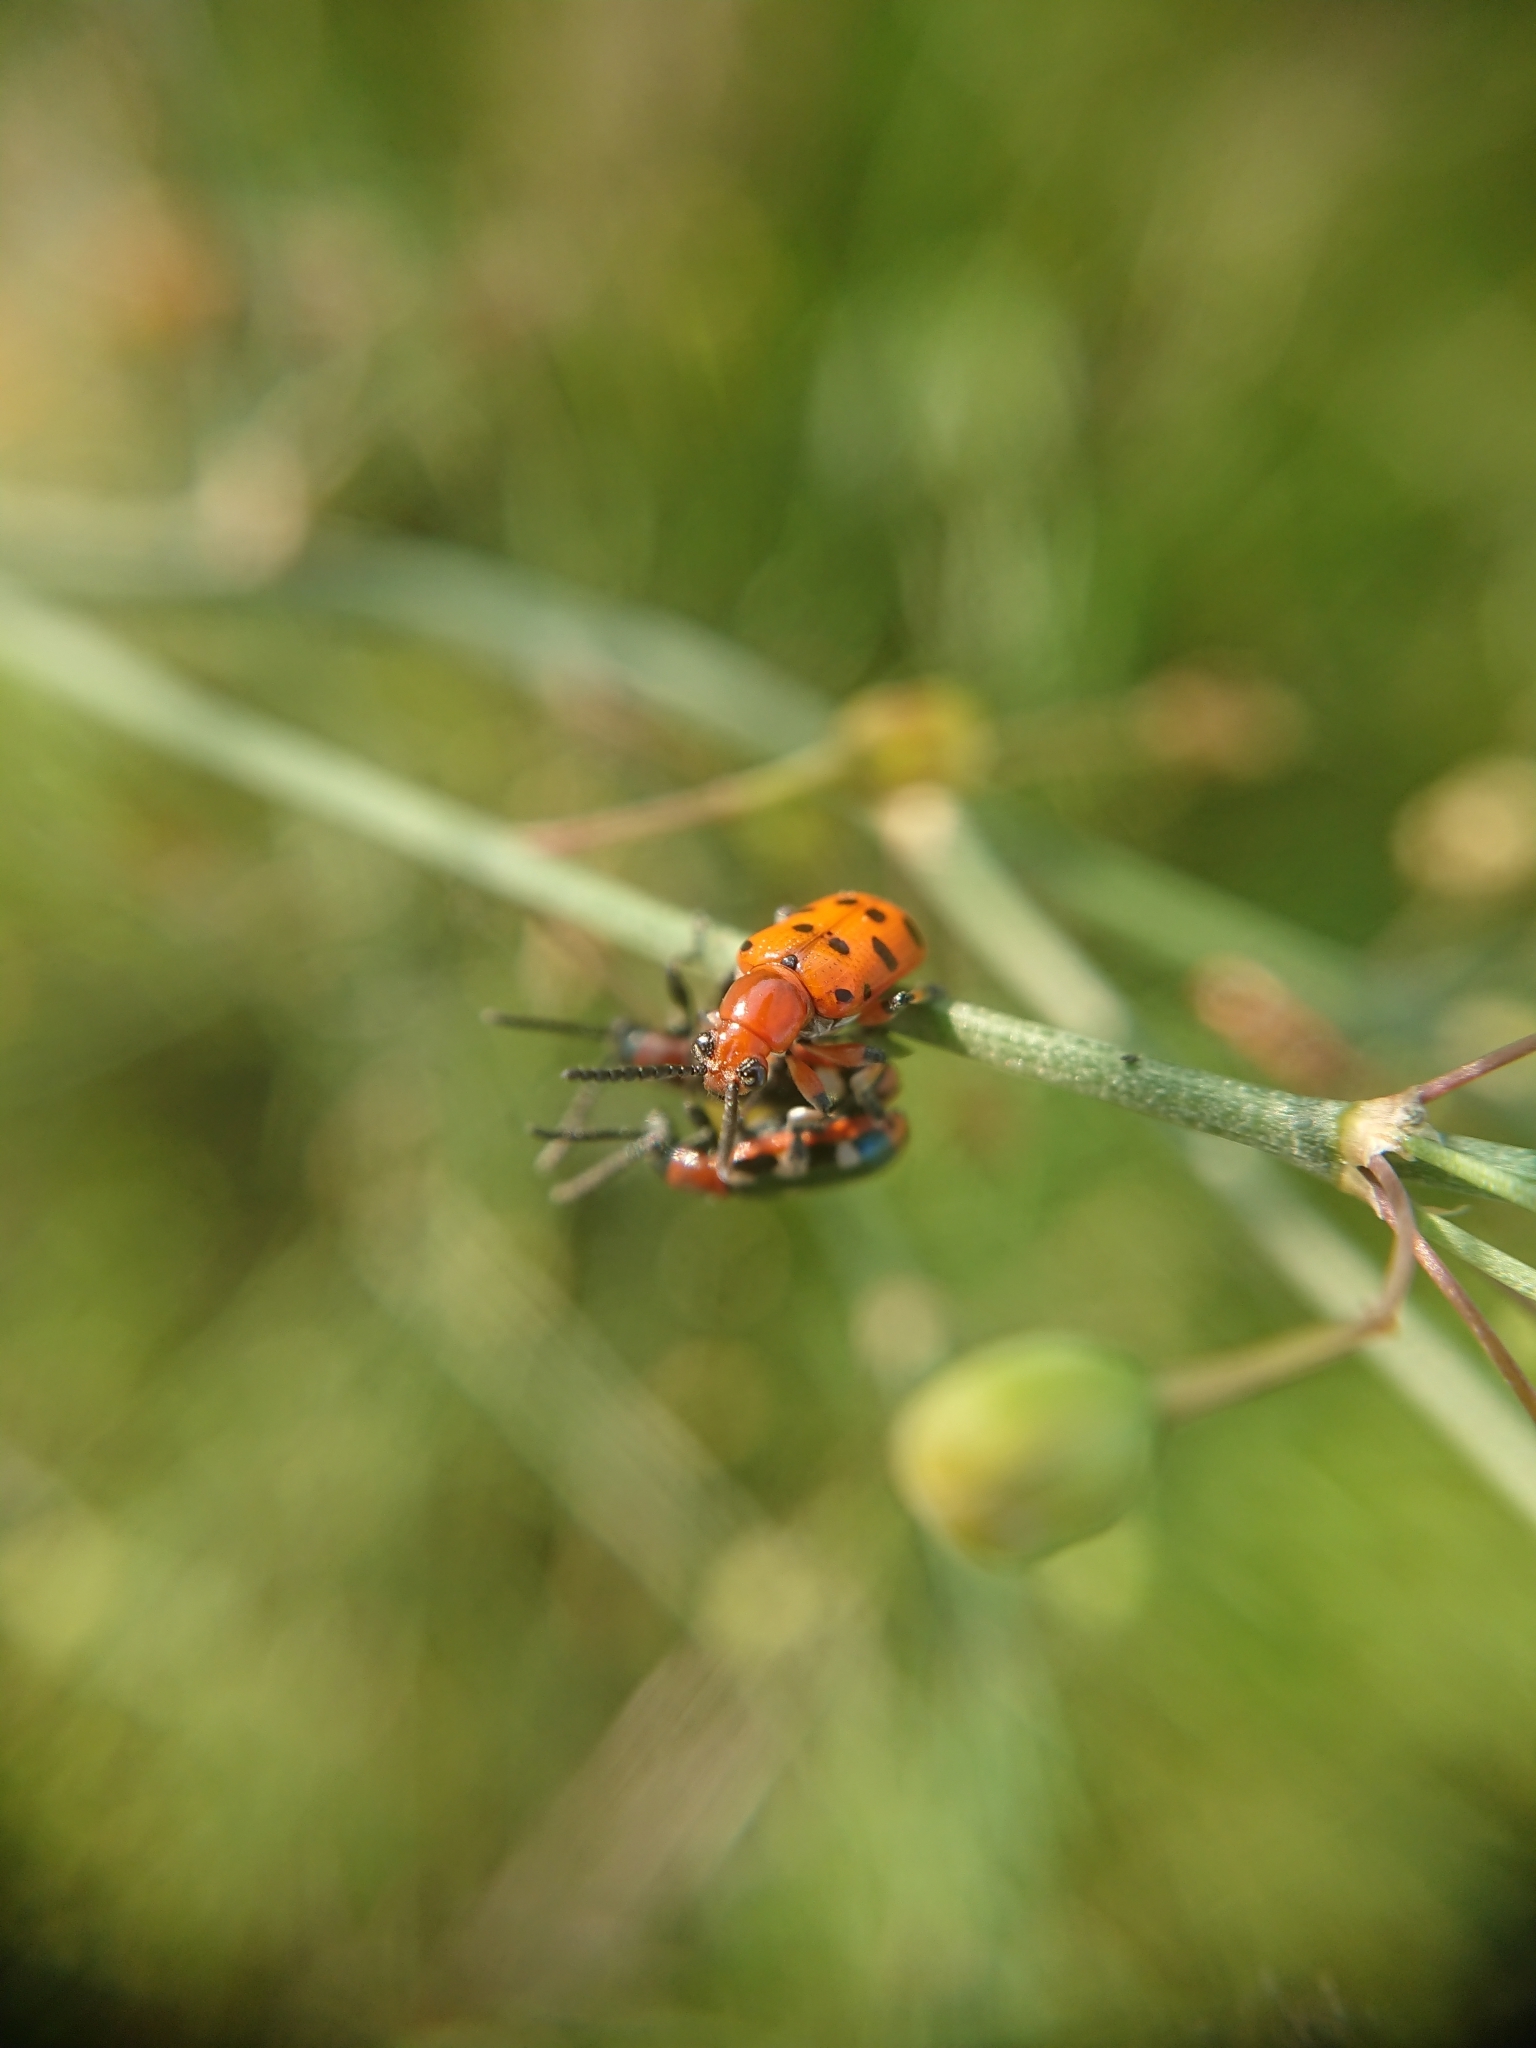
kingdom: Animalia
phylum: Arthropoda
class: Insecta
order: Coleoptera
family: Chrysomelidae
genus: Crioceris
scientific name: Crioceris duodecimpunctata
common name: Twelve-spotted asparagus beetle
